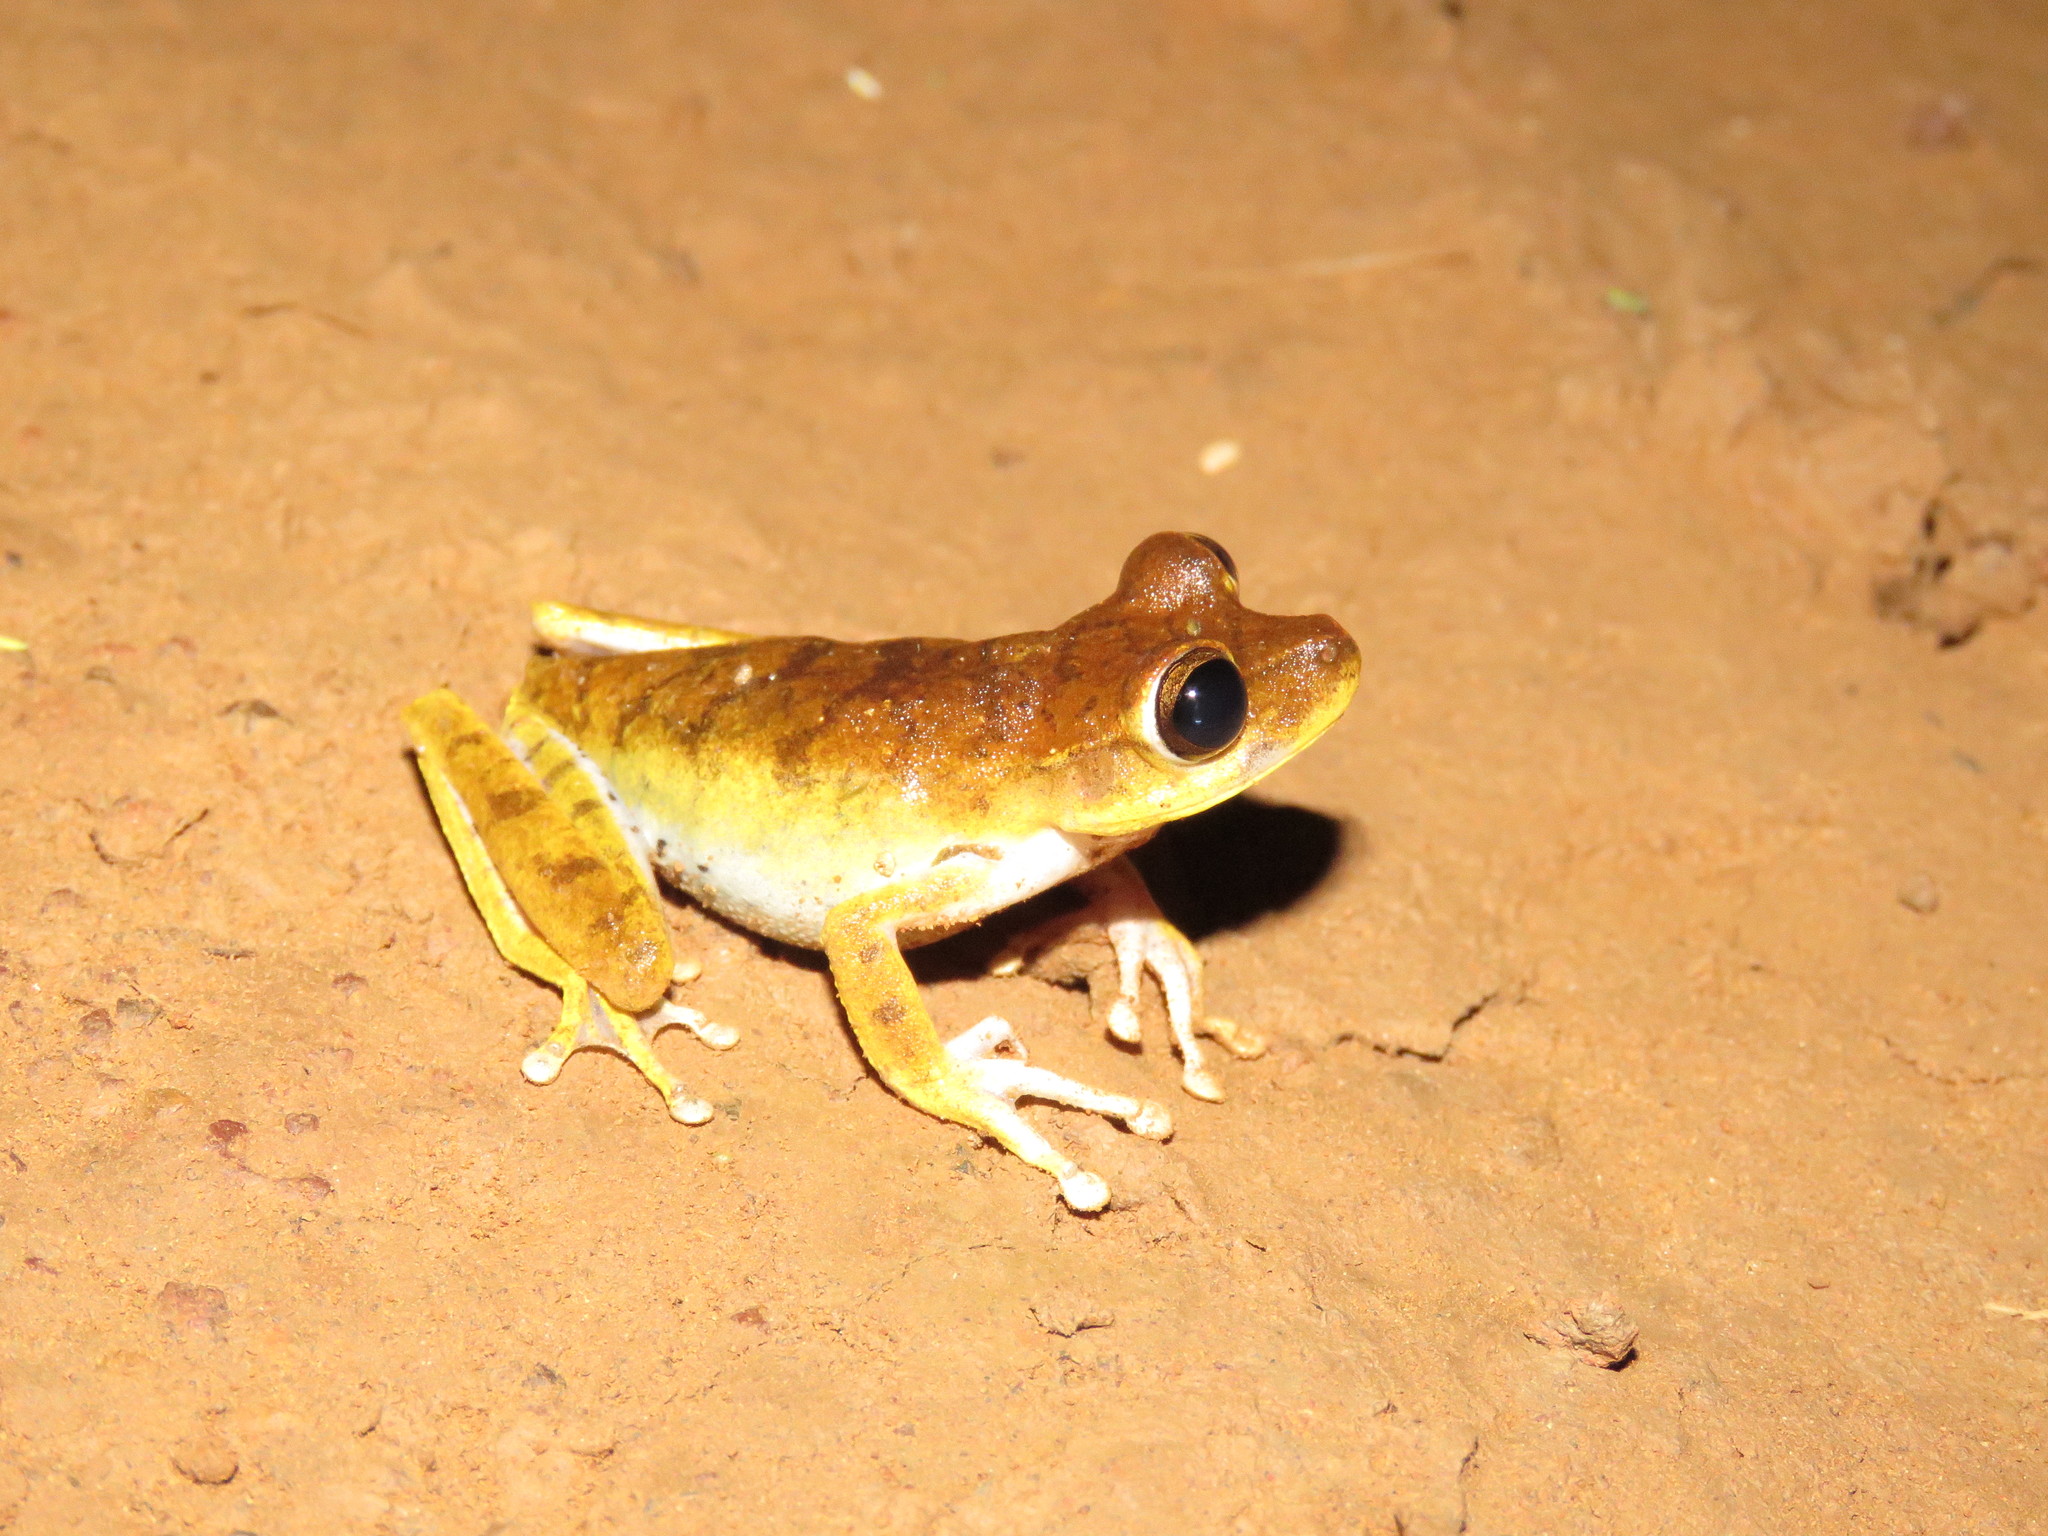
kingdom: Animalia
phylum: Chordata
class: Amphibia
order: Anura
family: Hylidae
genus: Boana
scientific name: Boana steinbachi
